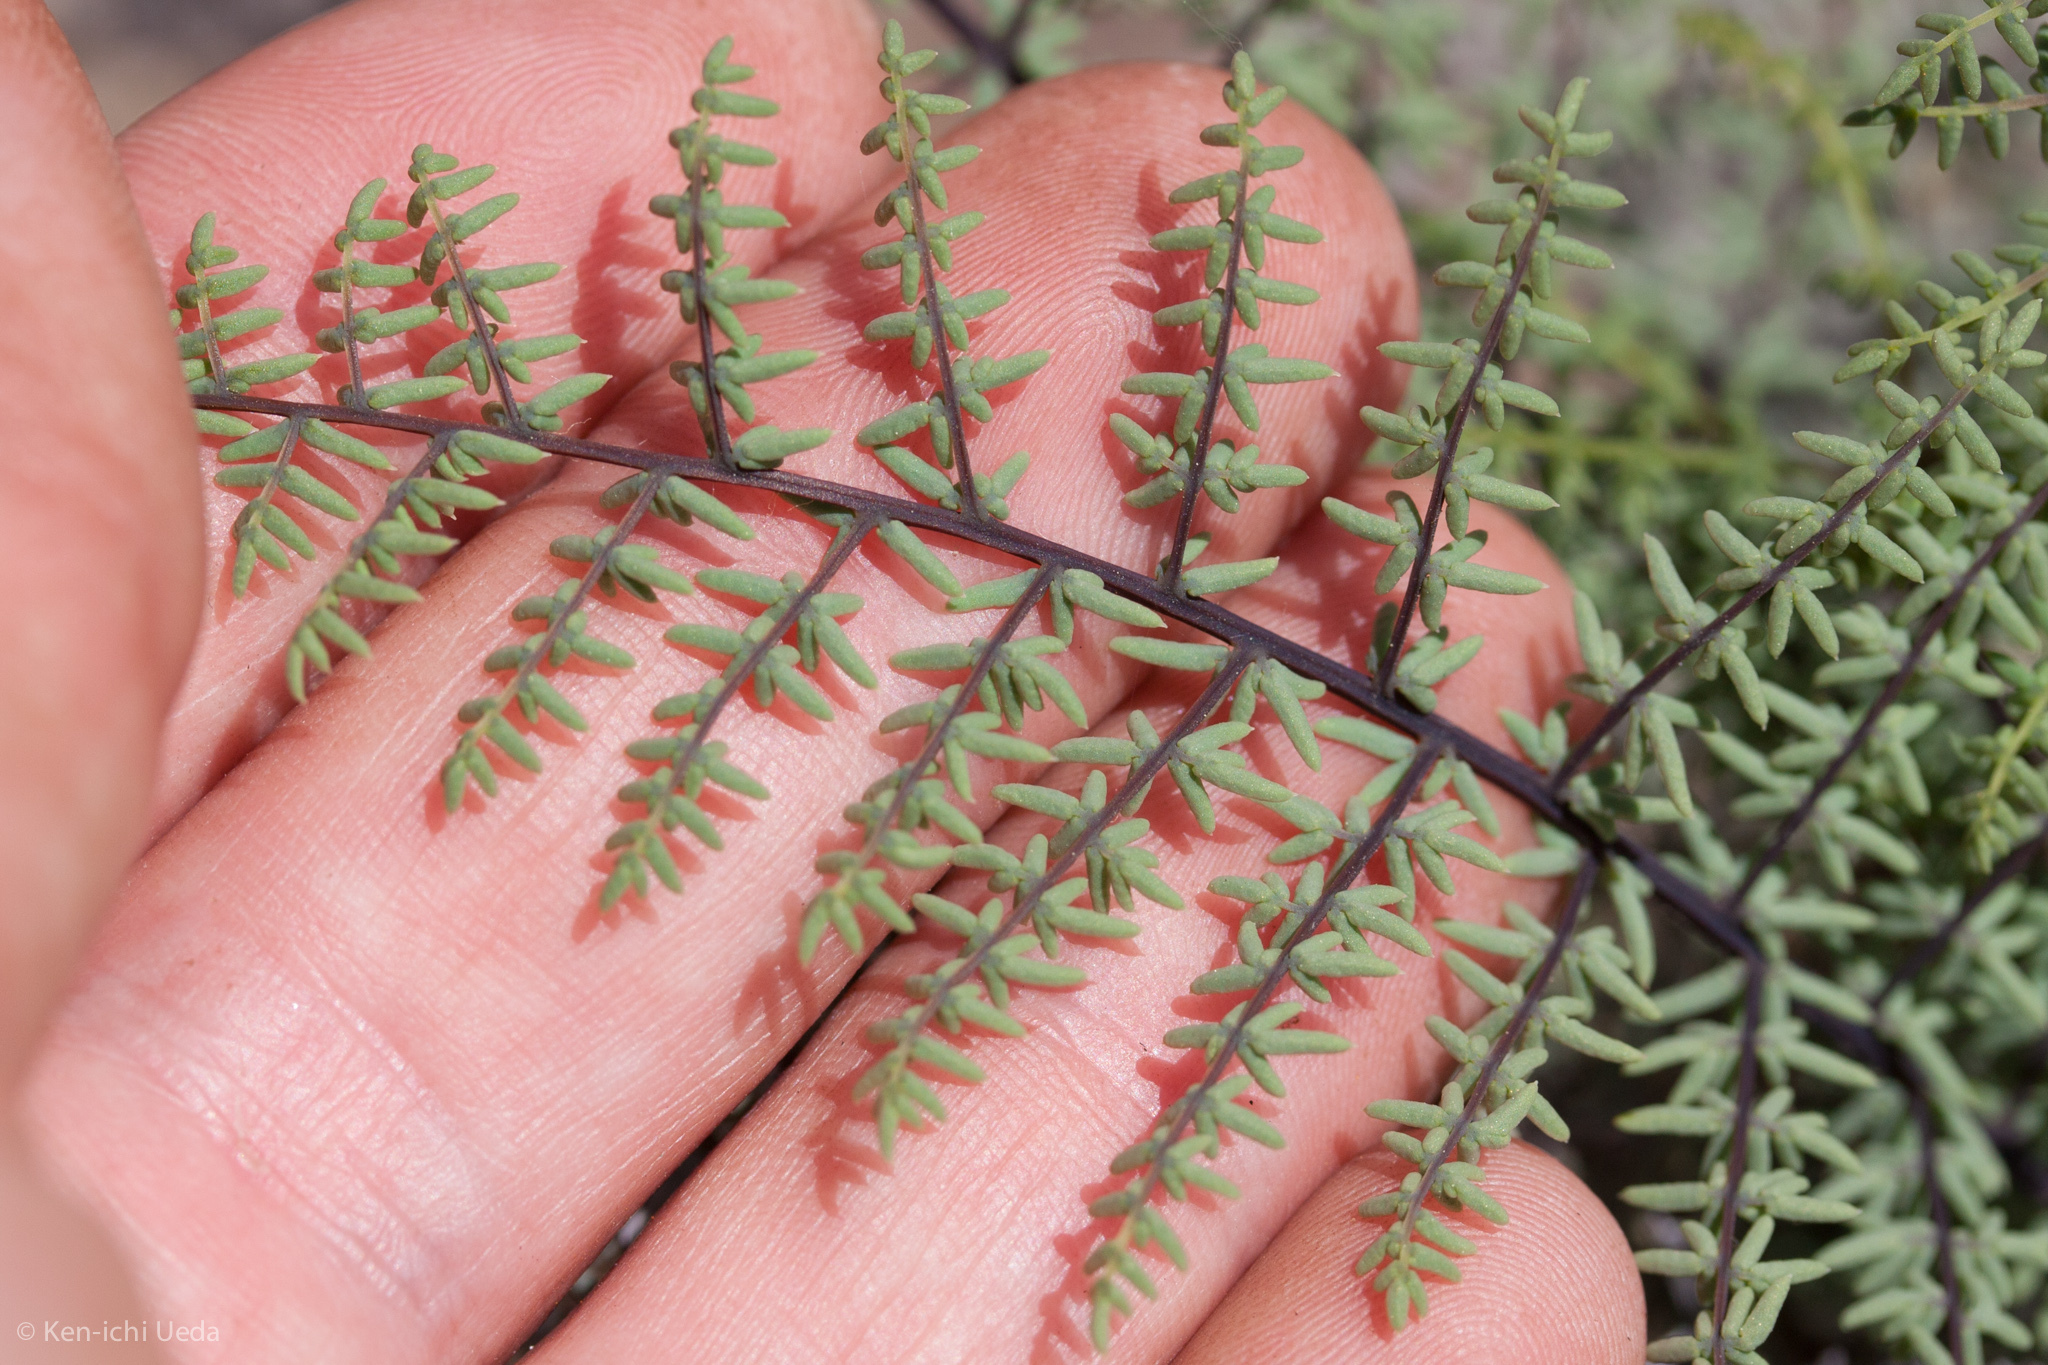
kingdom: Plantae
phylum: Tracheophyta
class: Polypodiopsida
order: Polypodiales
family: Pteridaceae
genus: Pellaea
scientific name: Pellaea mucronata
